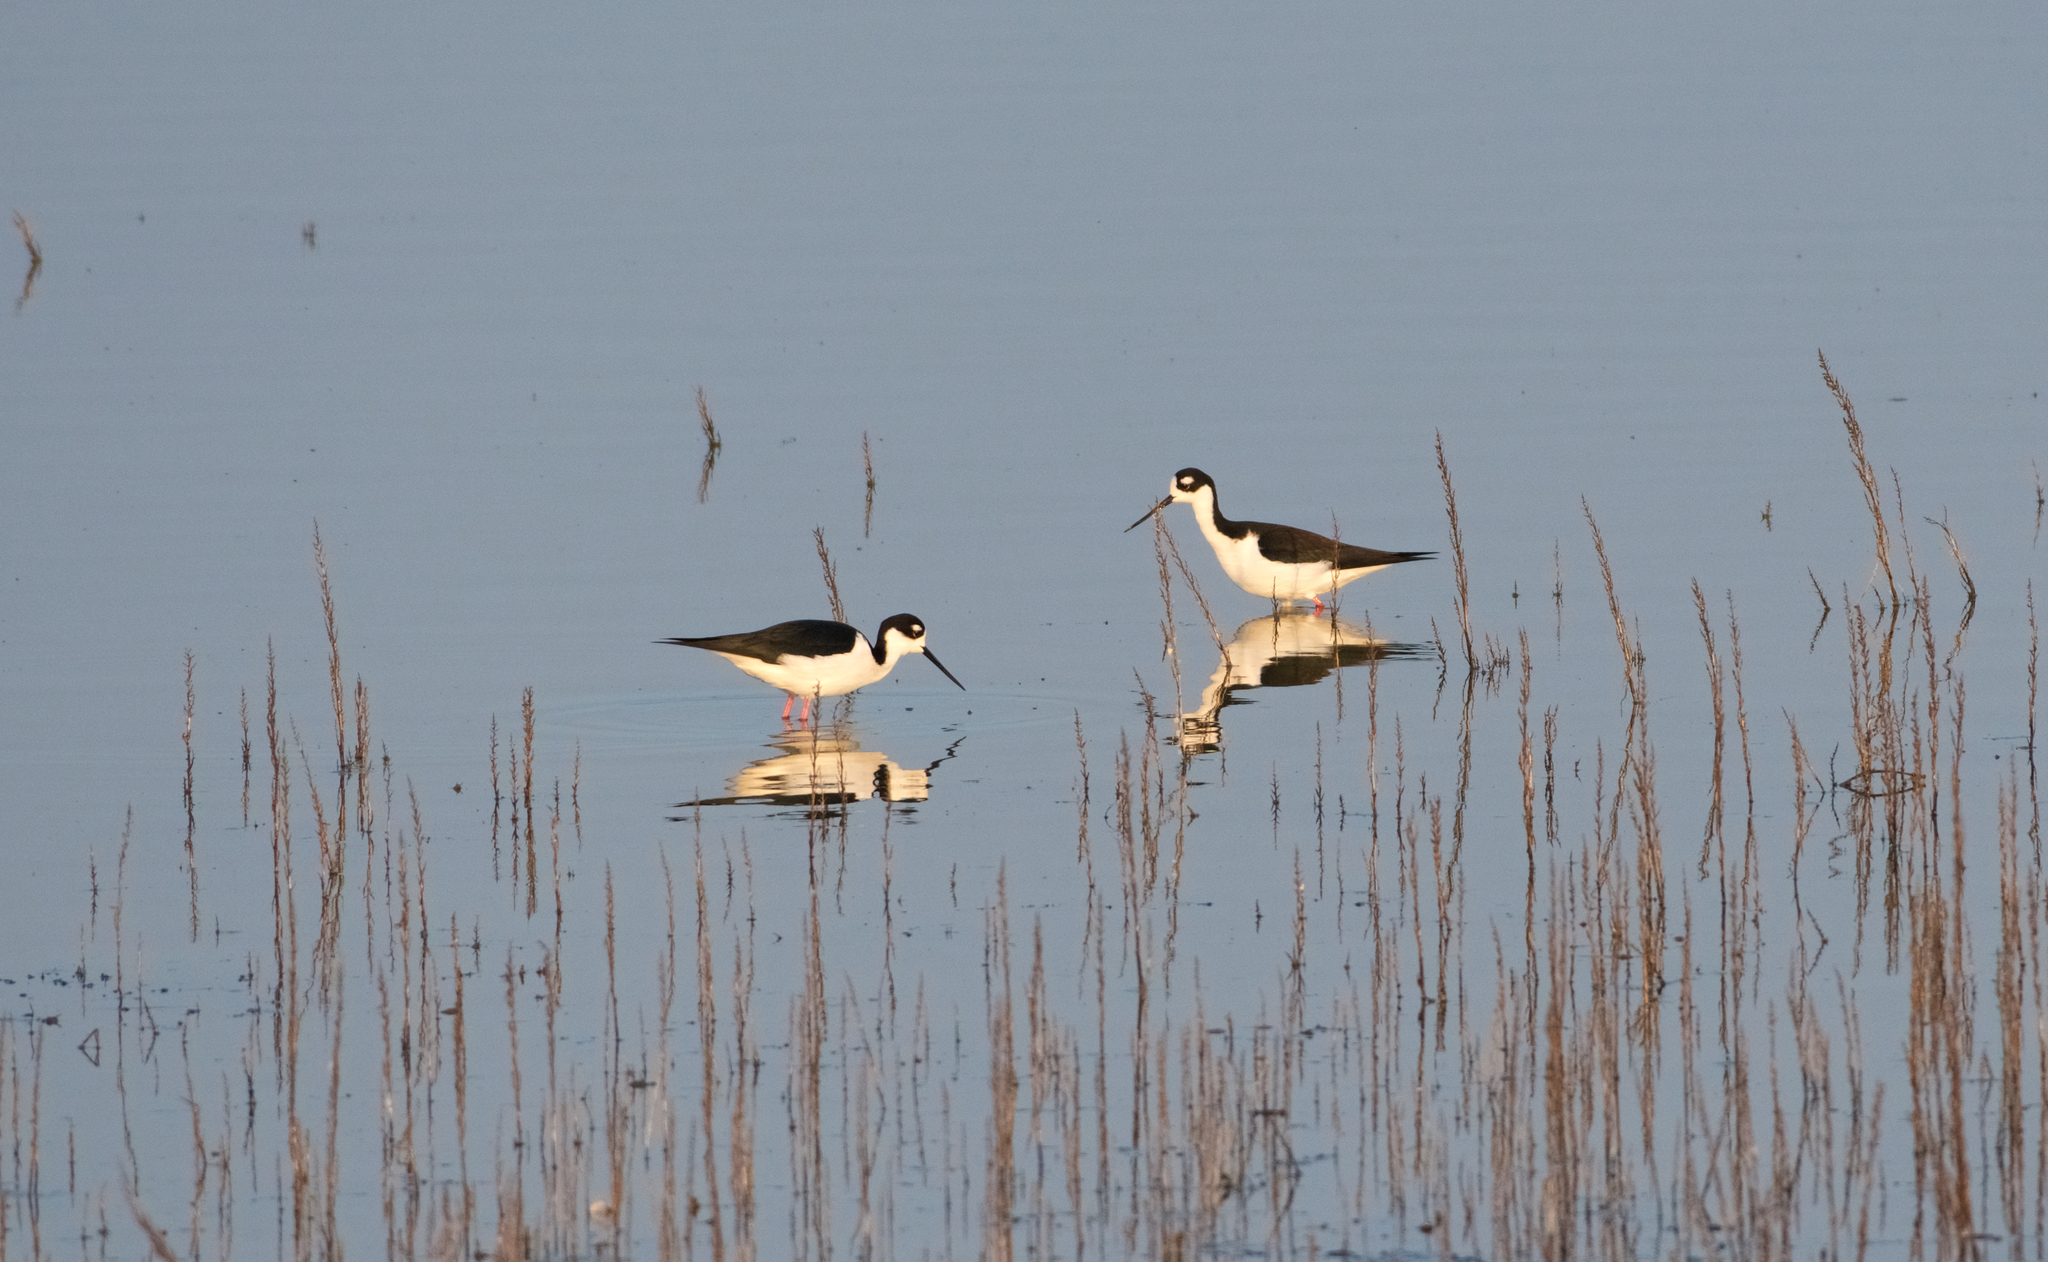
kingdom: Animalia
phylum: Chordata
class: Aves
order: Charadriiformes
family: Recurvirostridae
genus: Himantopus
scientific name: Himantopus mexicanus
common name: Black-necked stilt
